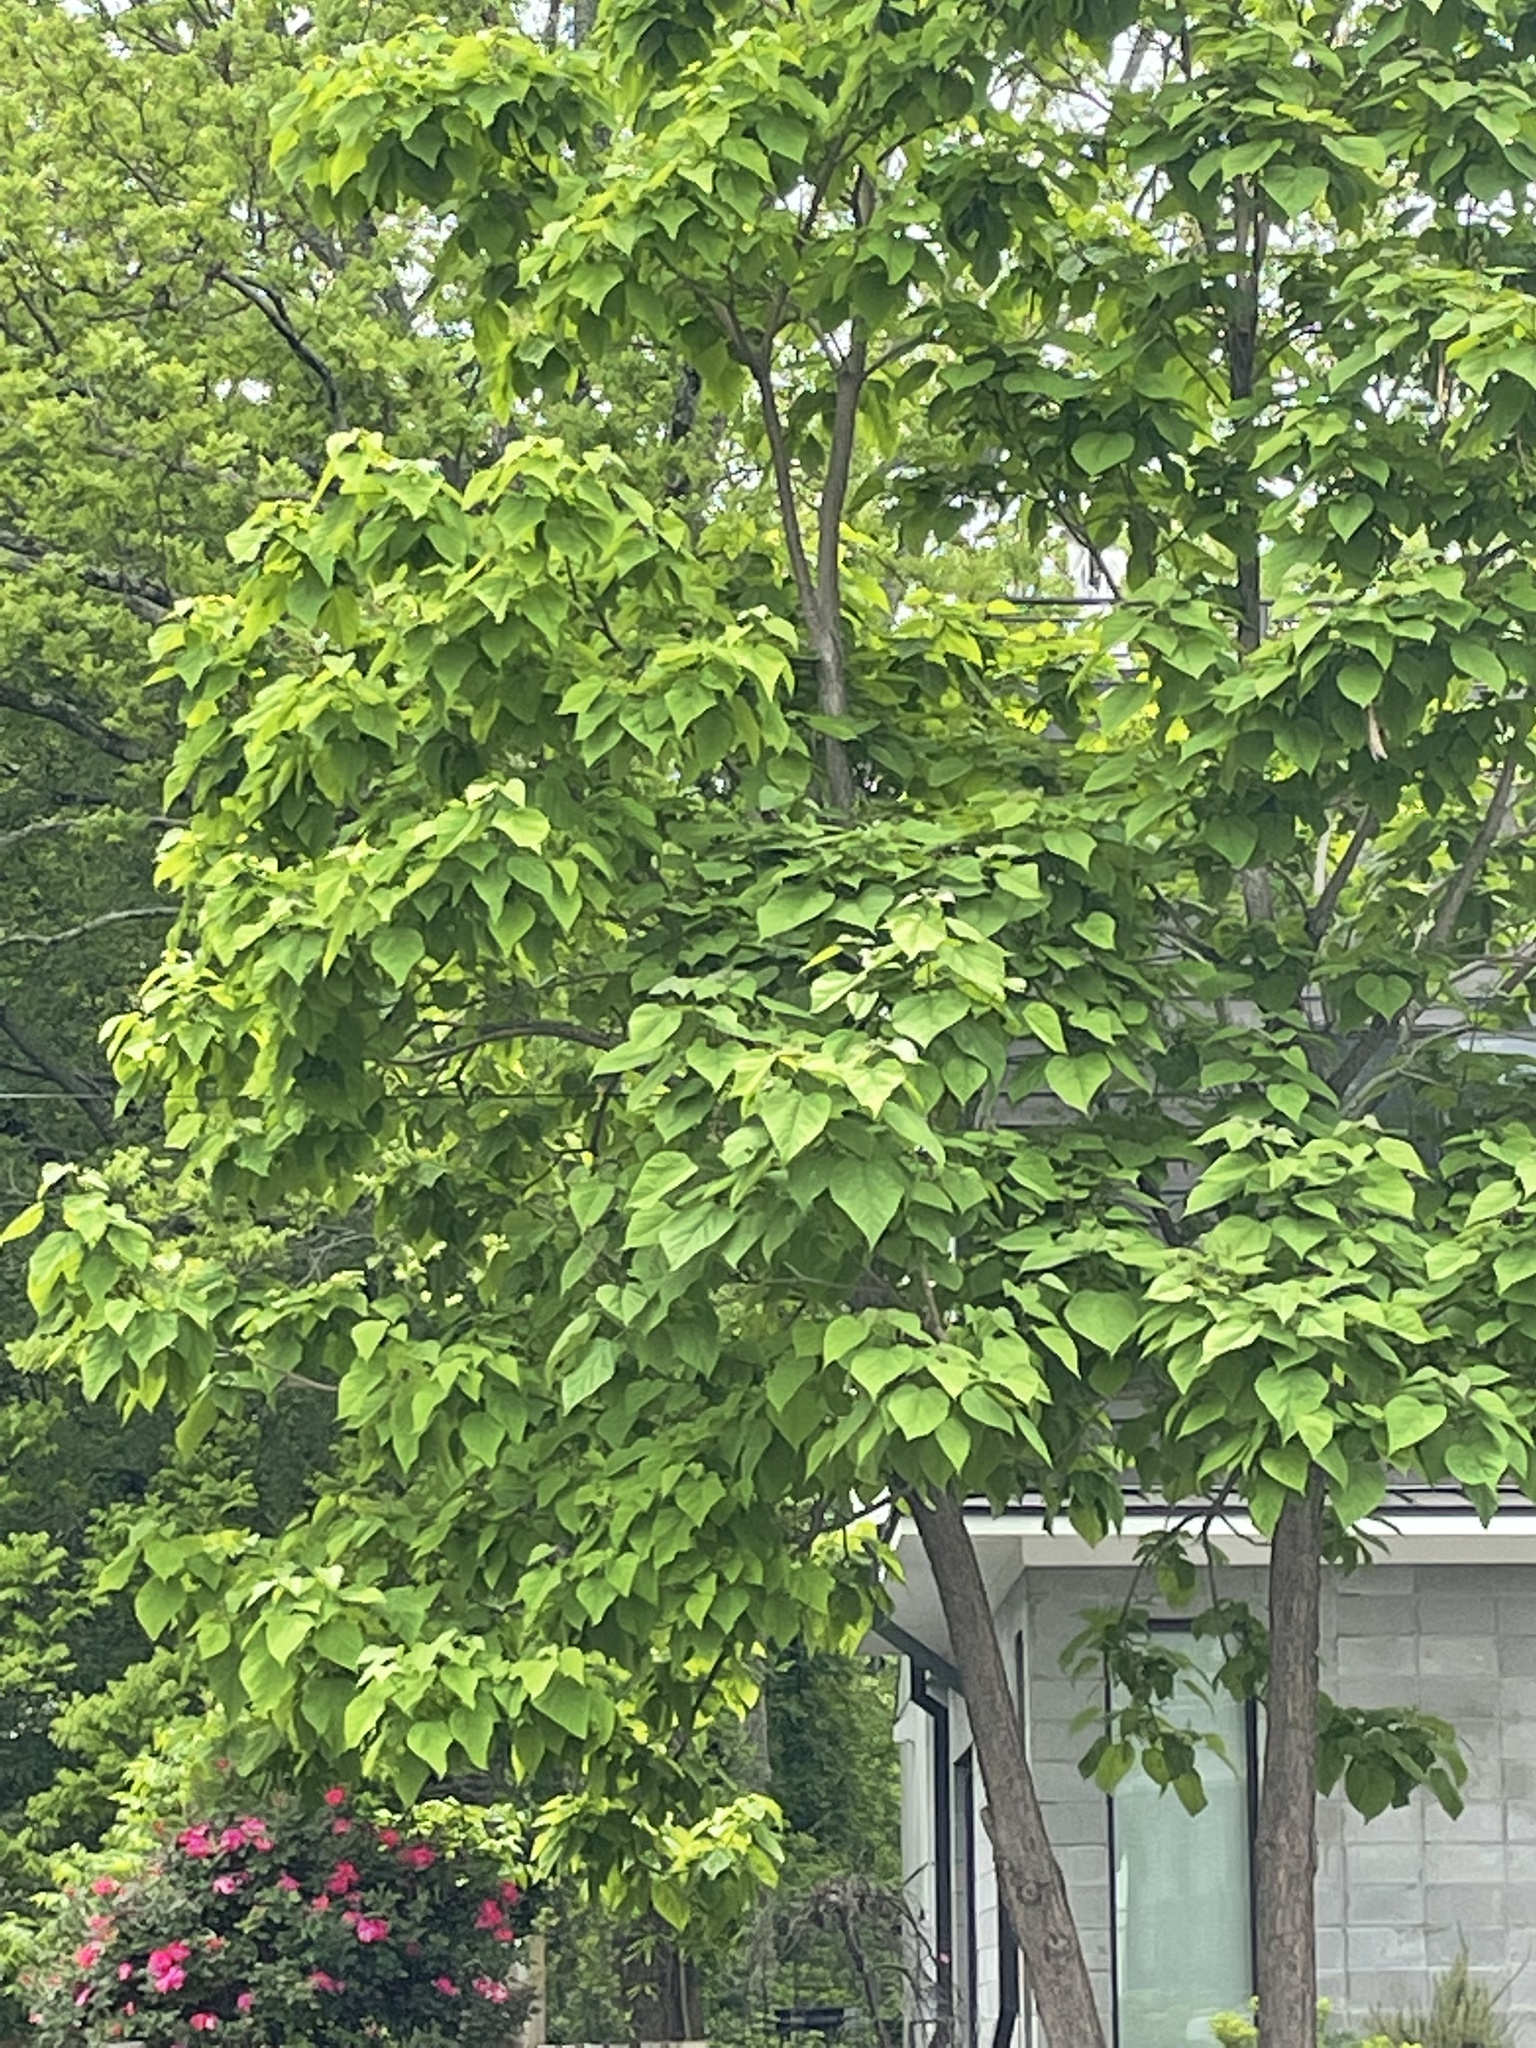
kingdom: Plantae
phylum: Tracheophyta
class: Magnoliopsida
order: Lamiales
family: Bignoniaceae
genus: Catalpa
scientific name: Catalpa bignonioides
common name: Southern catalpa
